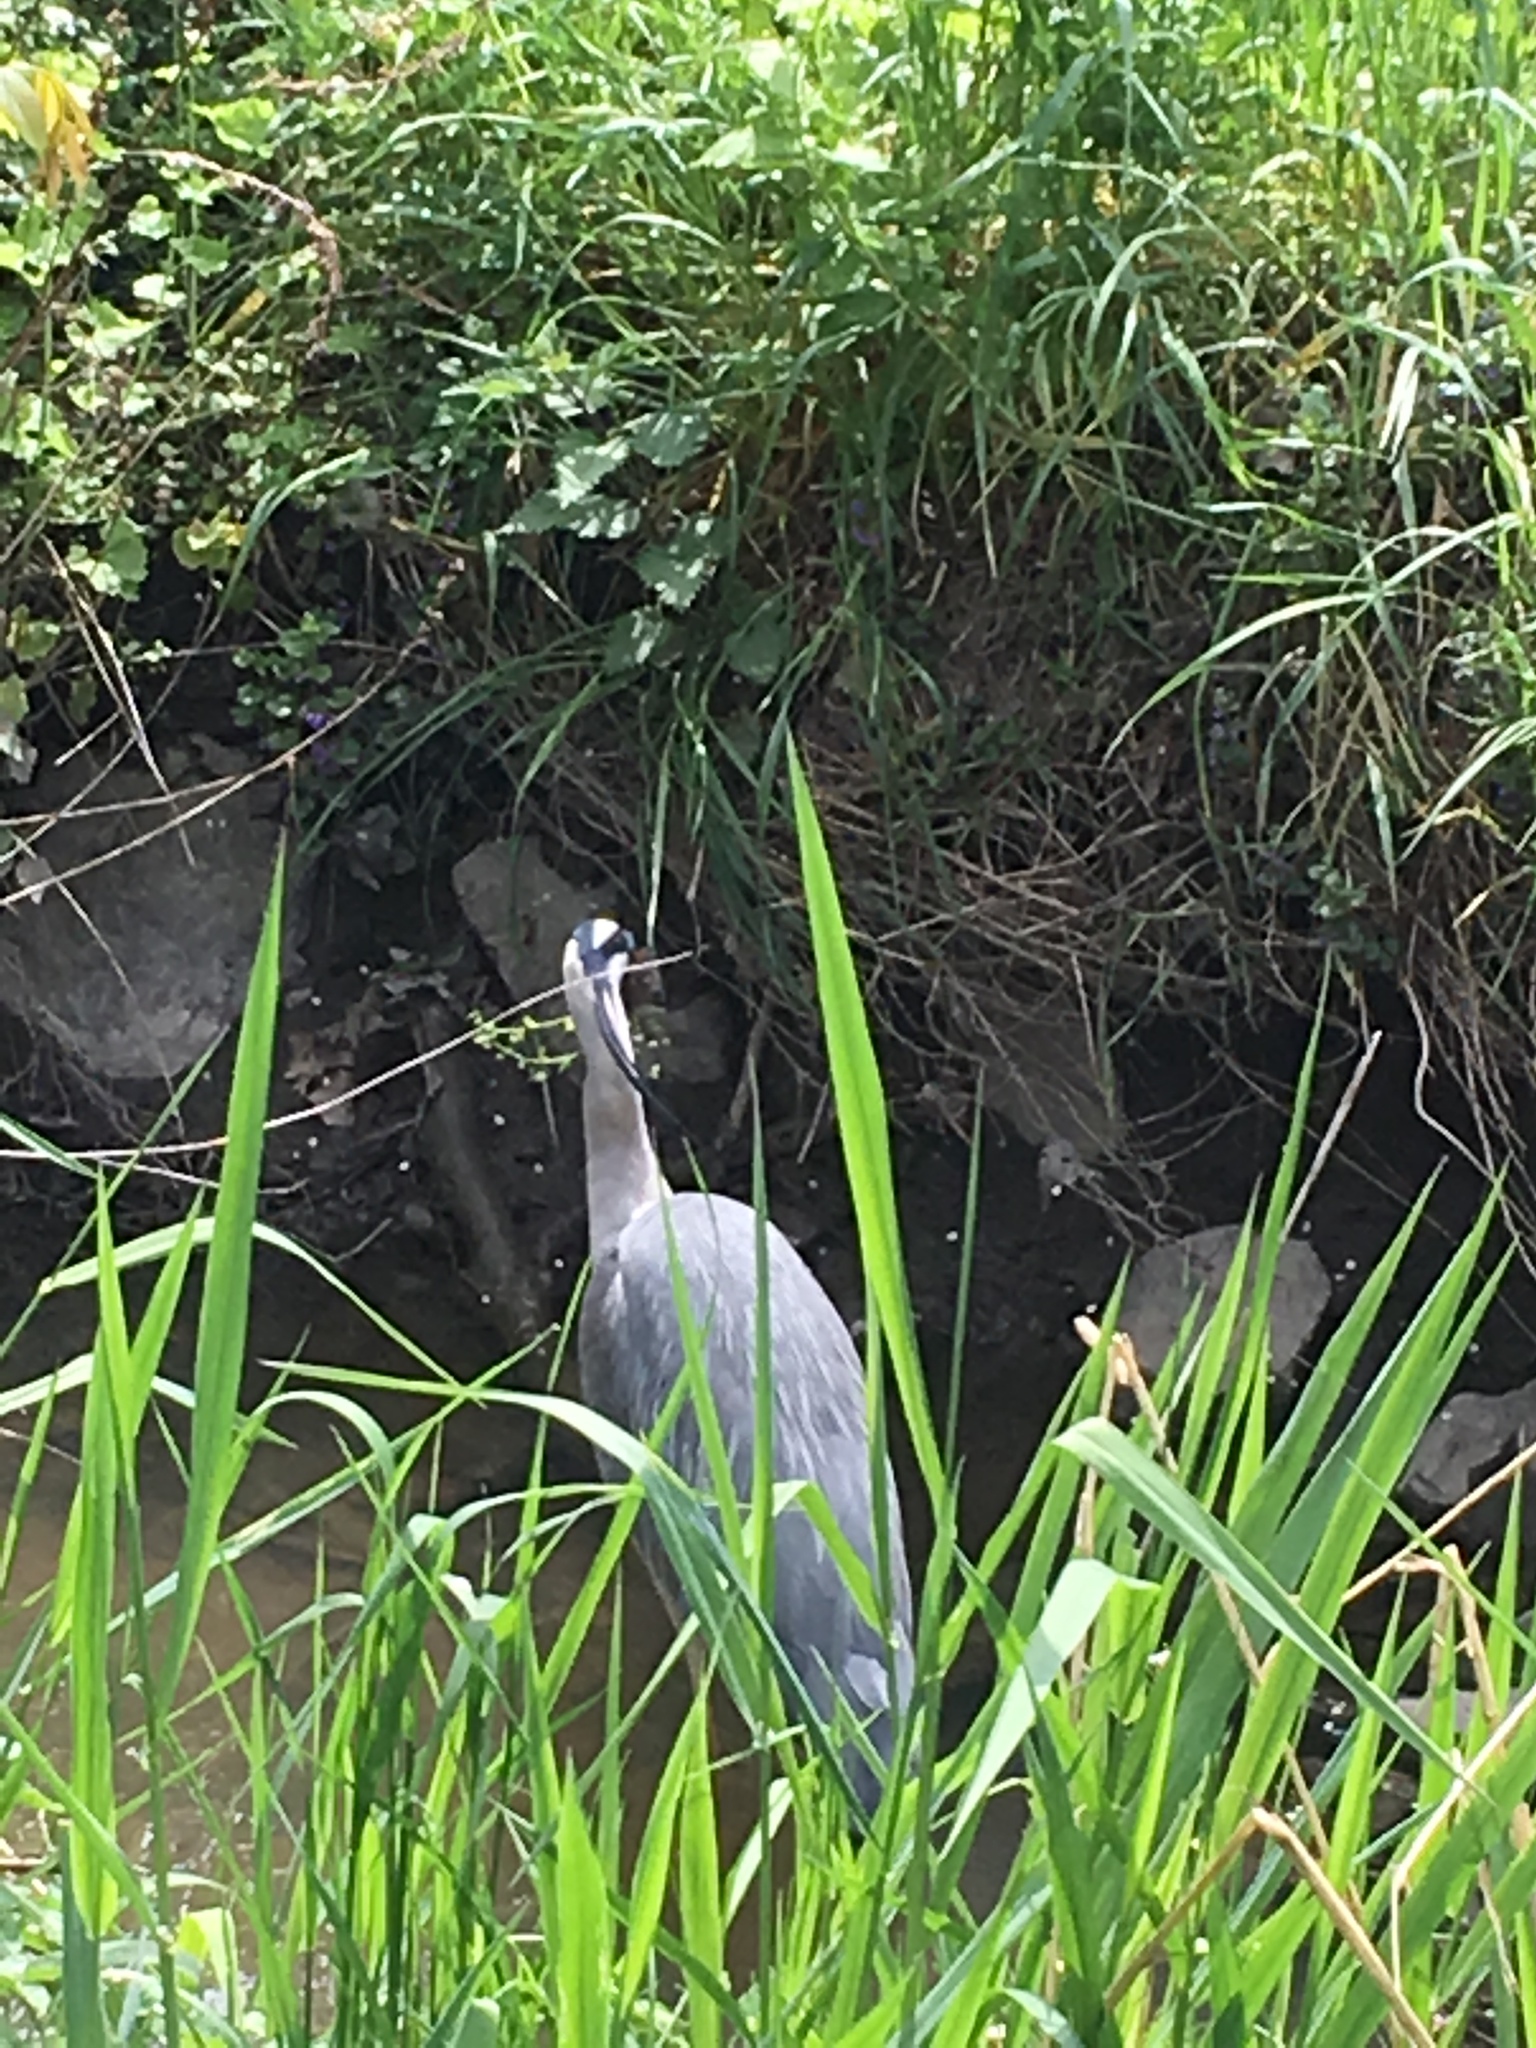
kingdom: Animalia
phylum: Chordata
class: Aves
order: Pelecaniformes
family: Ardeidae
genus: Ardea
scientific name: Ardea cinerea
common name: Grey heron
